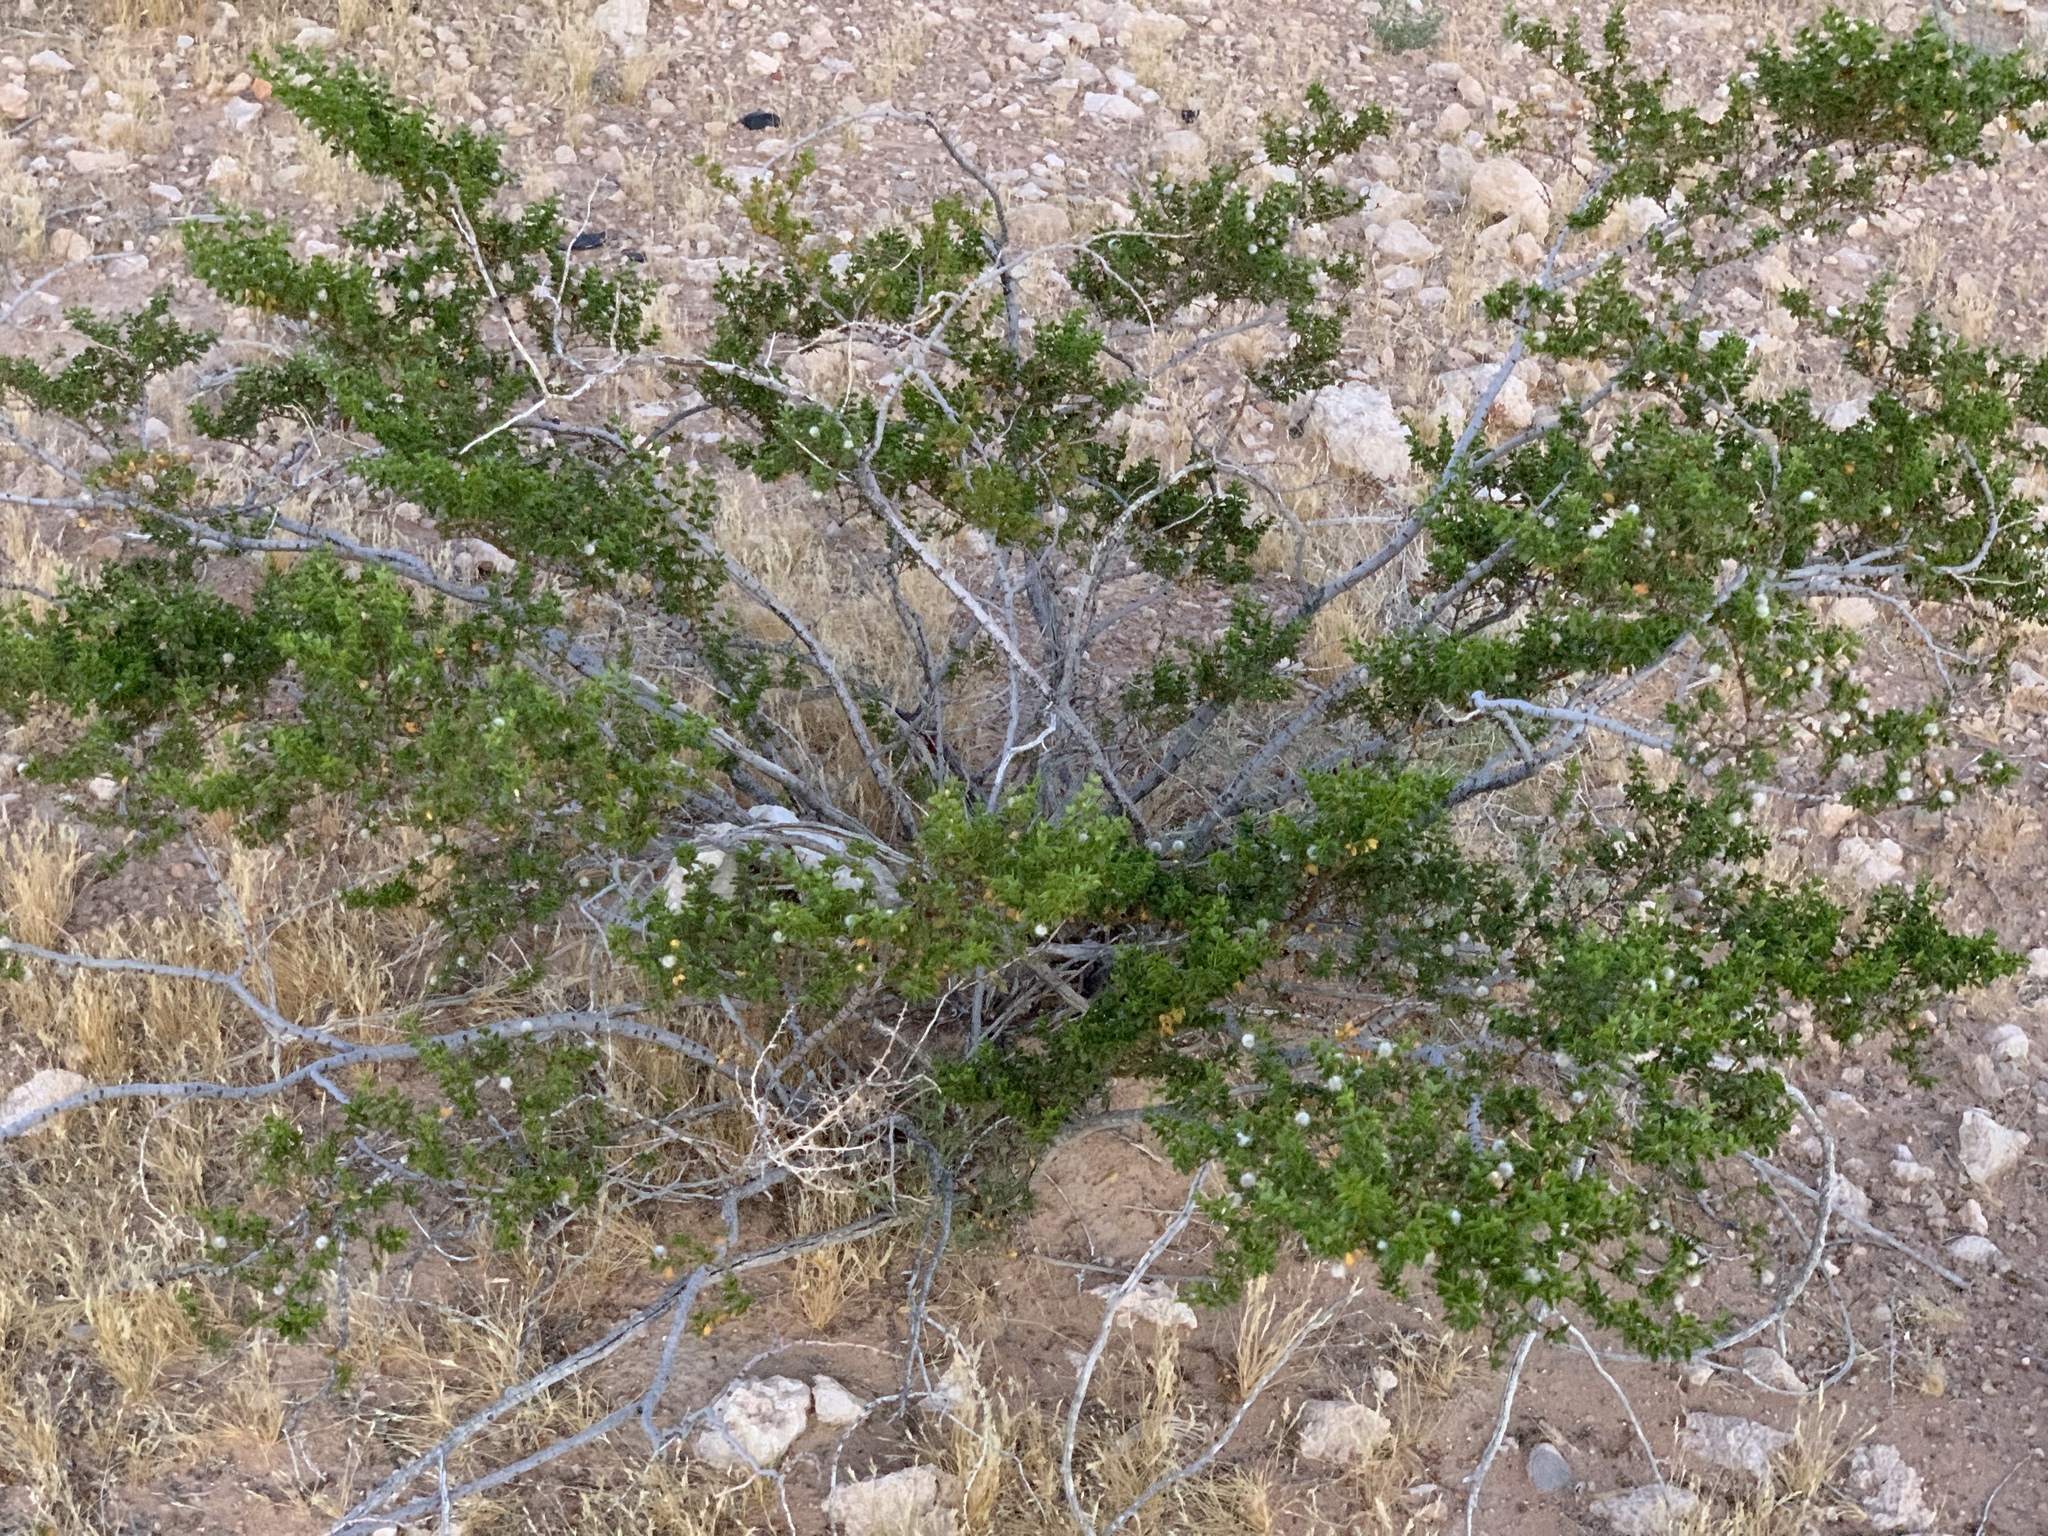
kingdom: Plantae
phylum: Tracheophyta
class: Magnoliopsida
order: Zygophyllales
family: Zygophyllaceae
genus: Larrea
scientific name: Larrea tridentata
